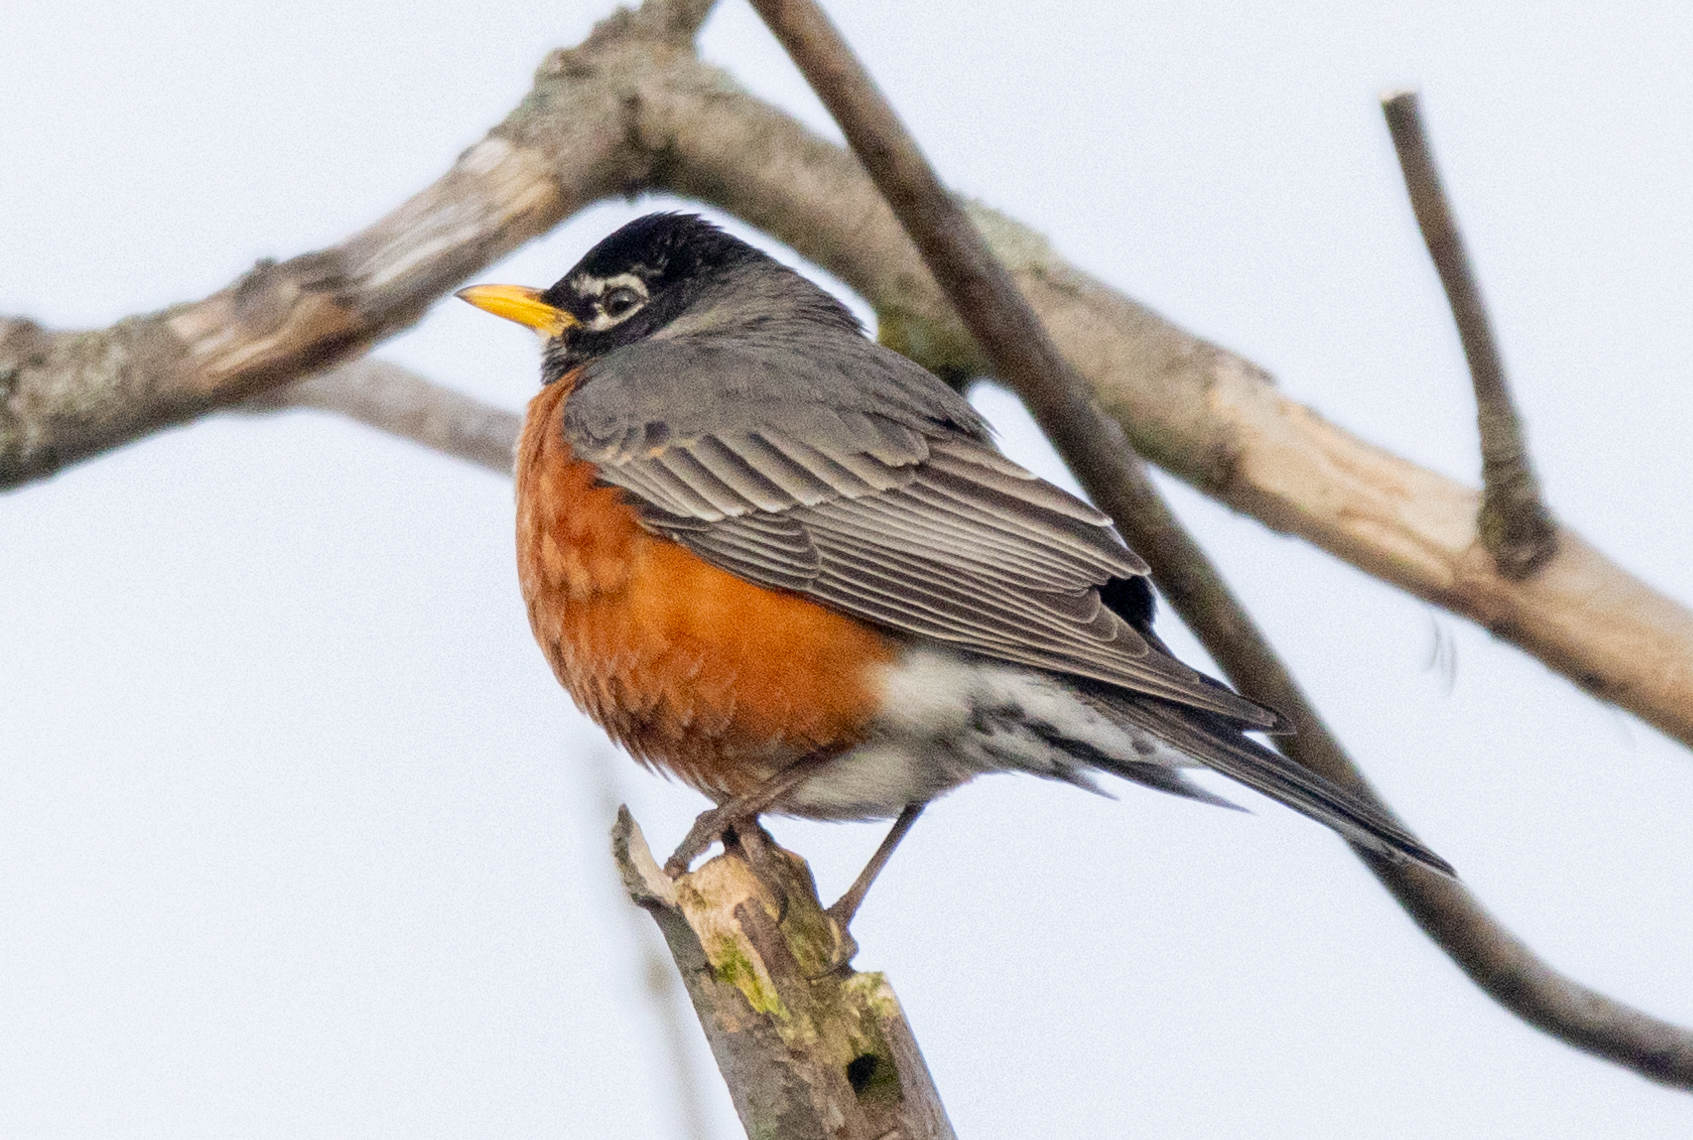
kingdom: Animalia
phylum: Chordata
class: Aves
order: Passeriformes
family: Turdidae
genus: Turdus
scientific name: Turdus migratorius
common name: American robin
